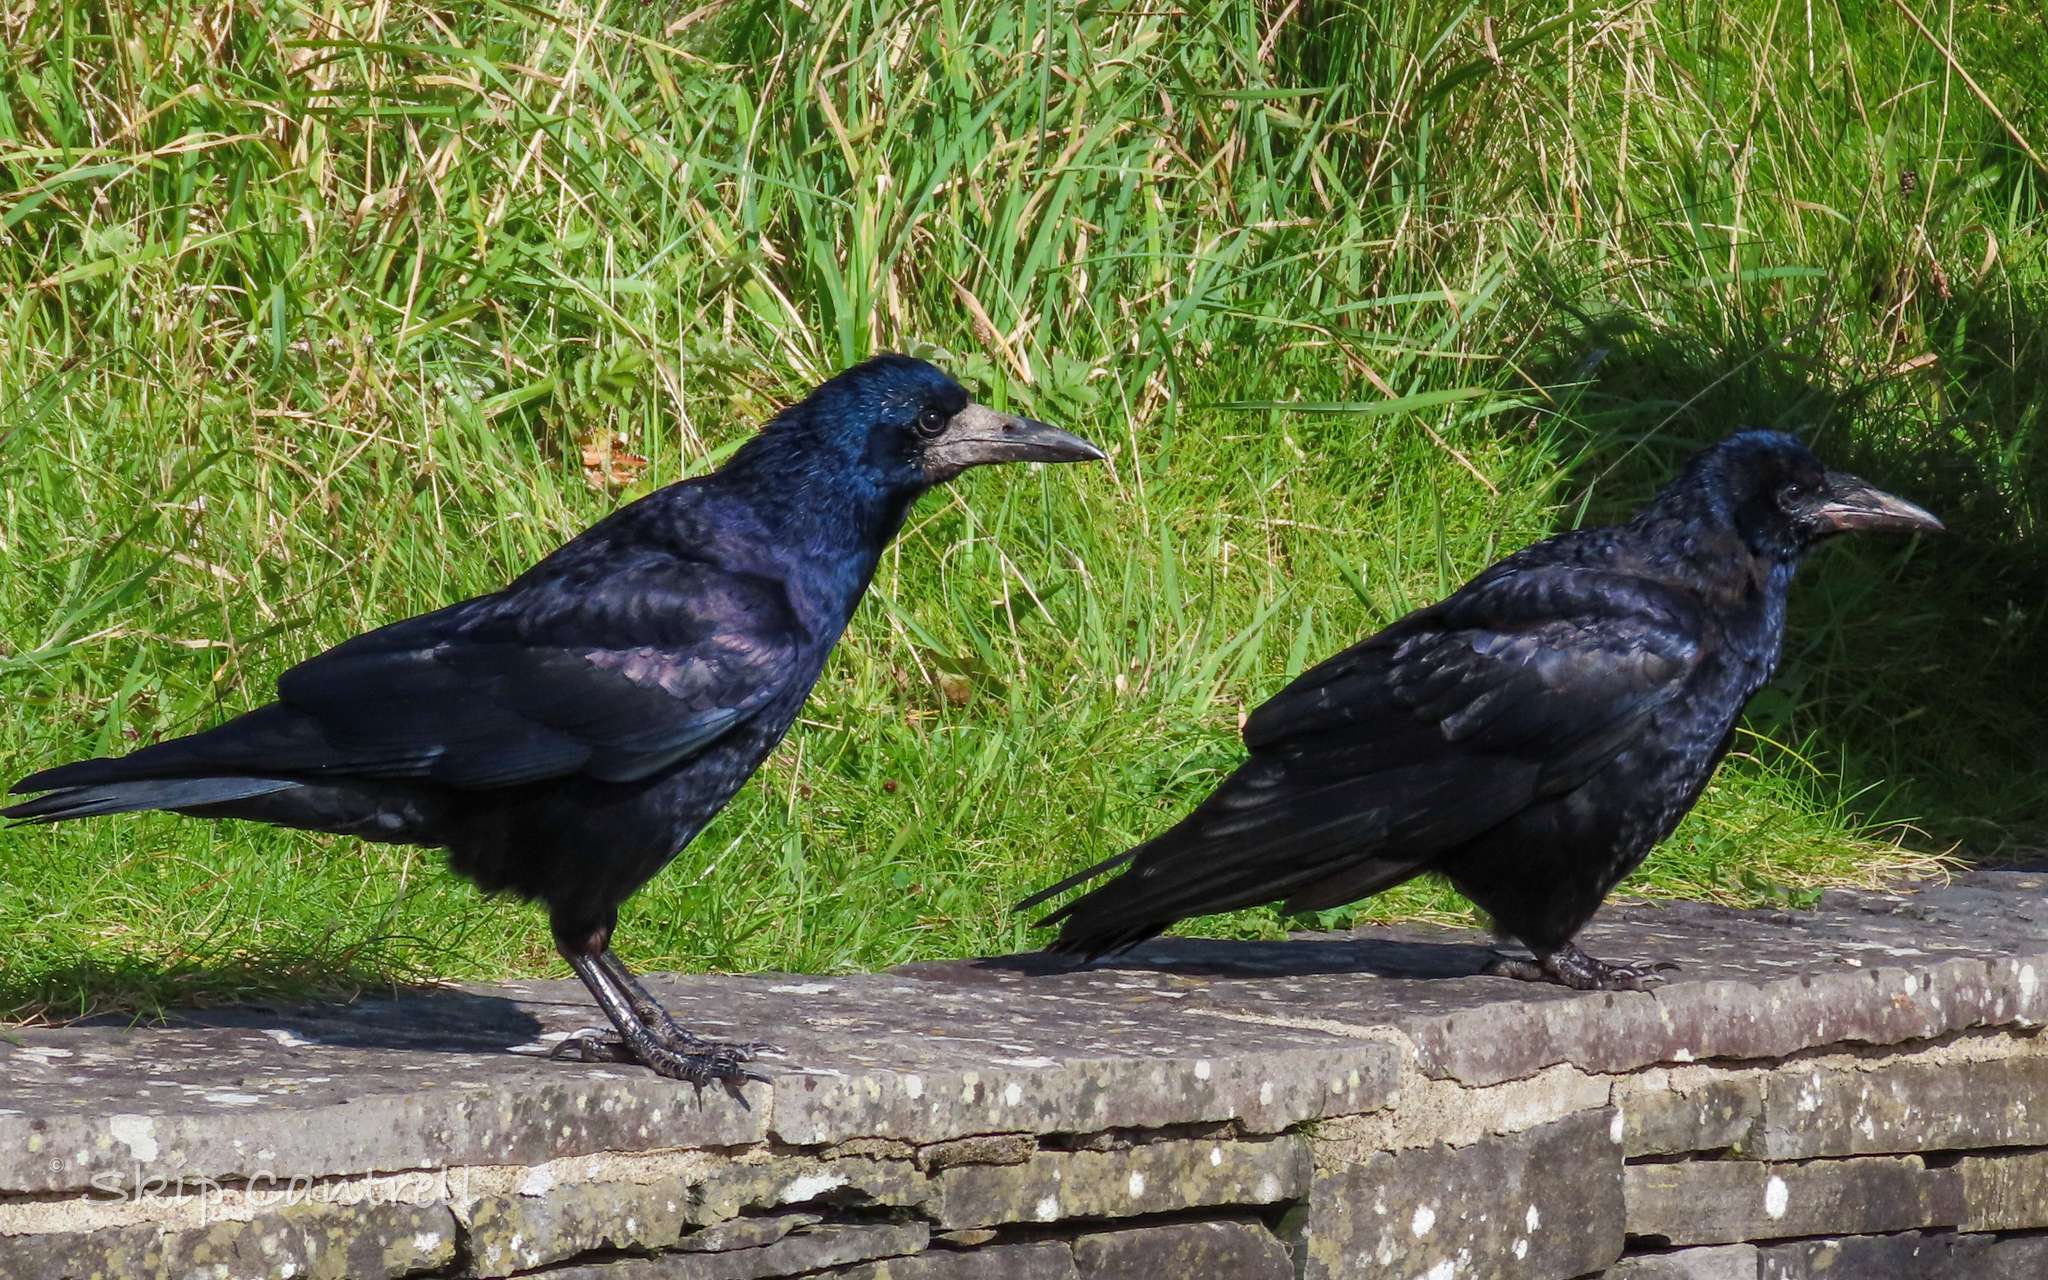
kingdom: Animalia
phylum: Chordata
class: Aves
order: Passeriformes
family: Corvidae
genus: Corvus
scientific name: Corvus frugilegus
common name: Rook
